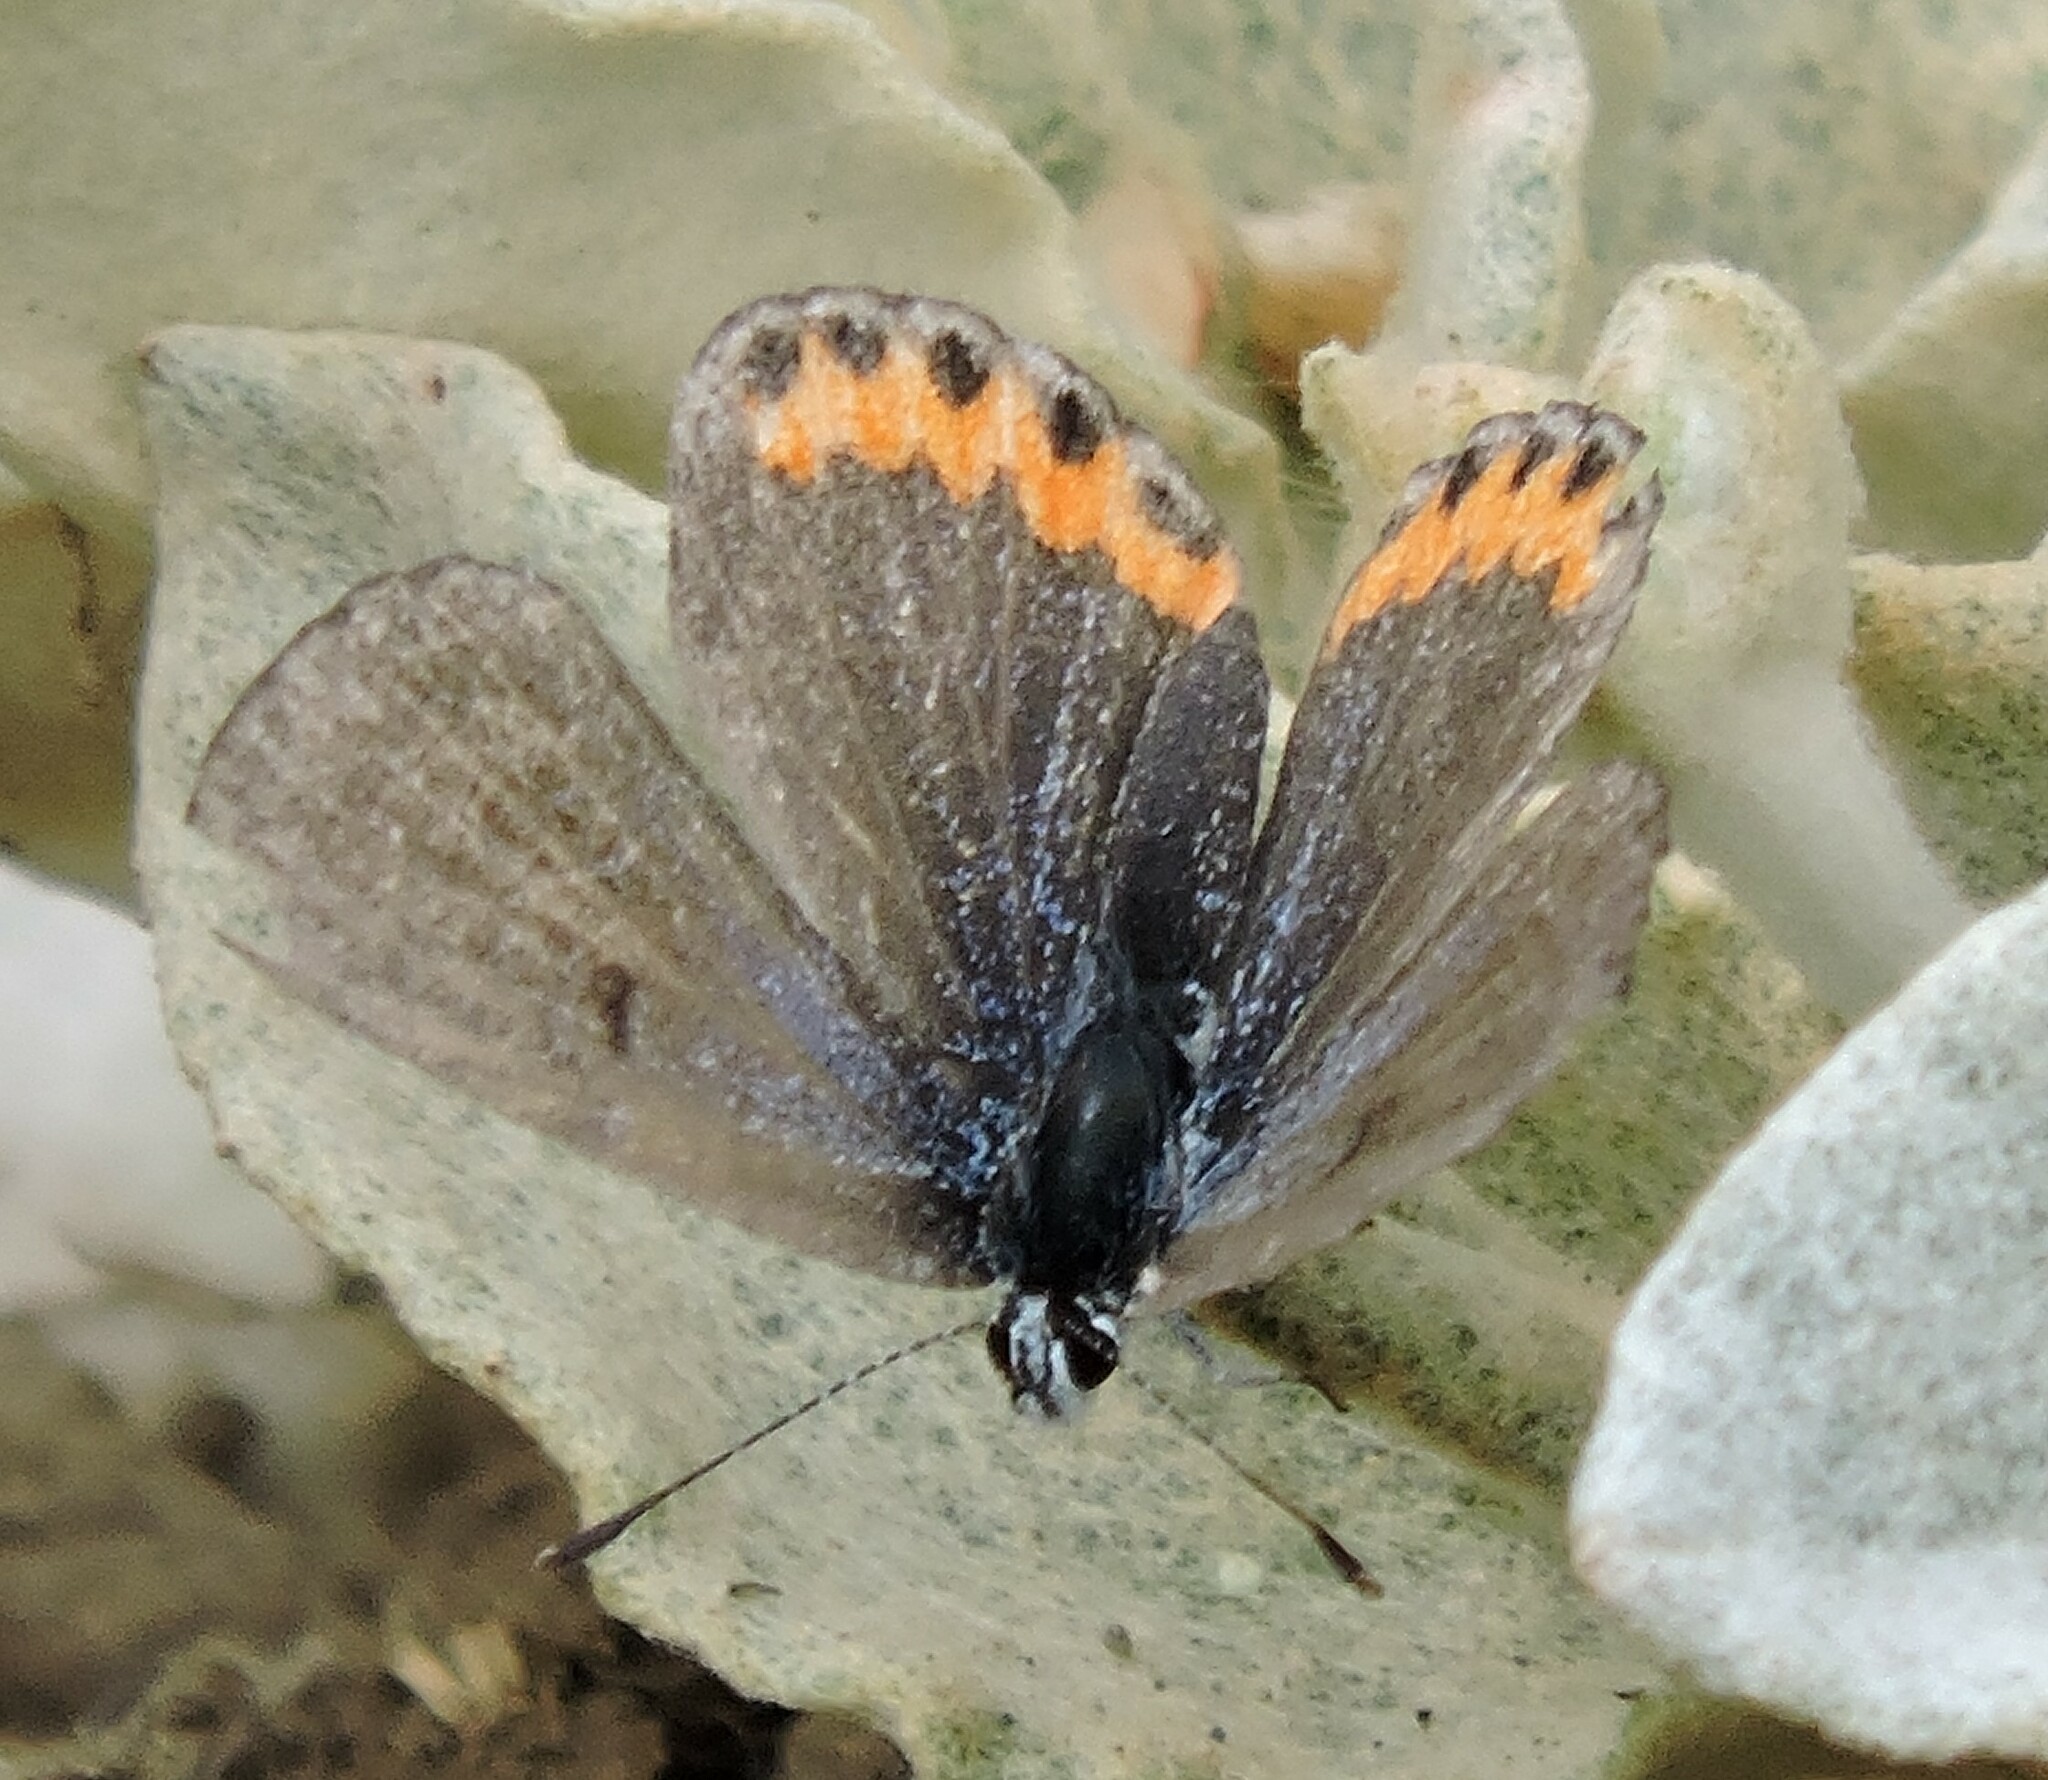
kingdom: Animalia
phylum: Arthropoda
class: Insecta
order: Lepidoptera
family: Lycaenidae
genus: Icaricia
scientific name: Icaricia acmon
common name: Acmon blue
